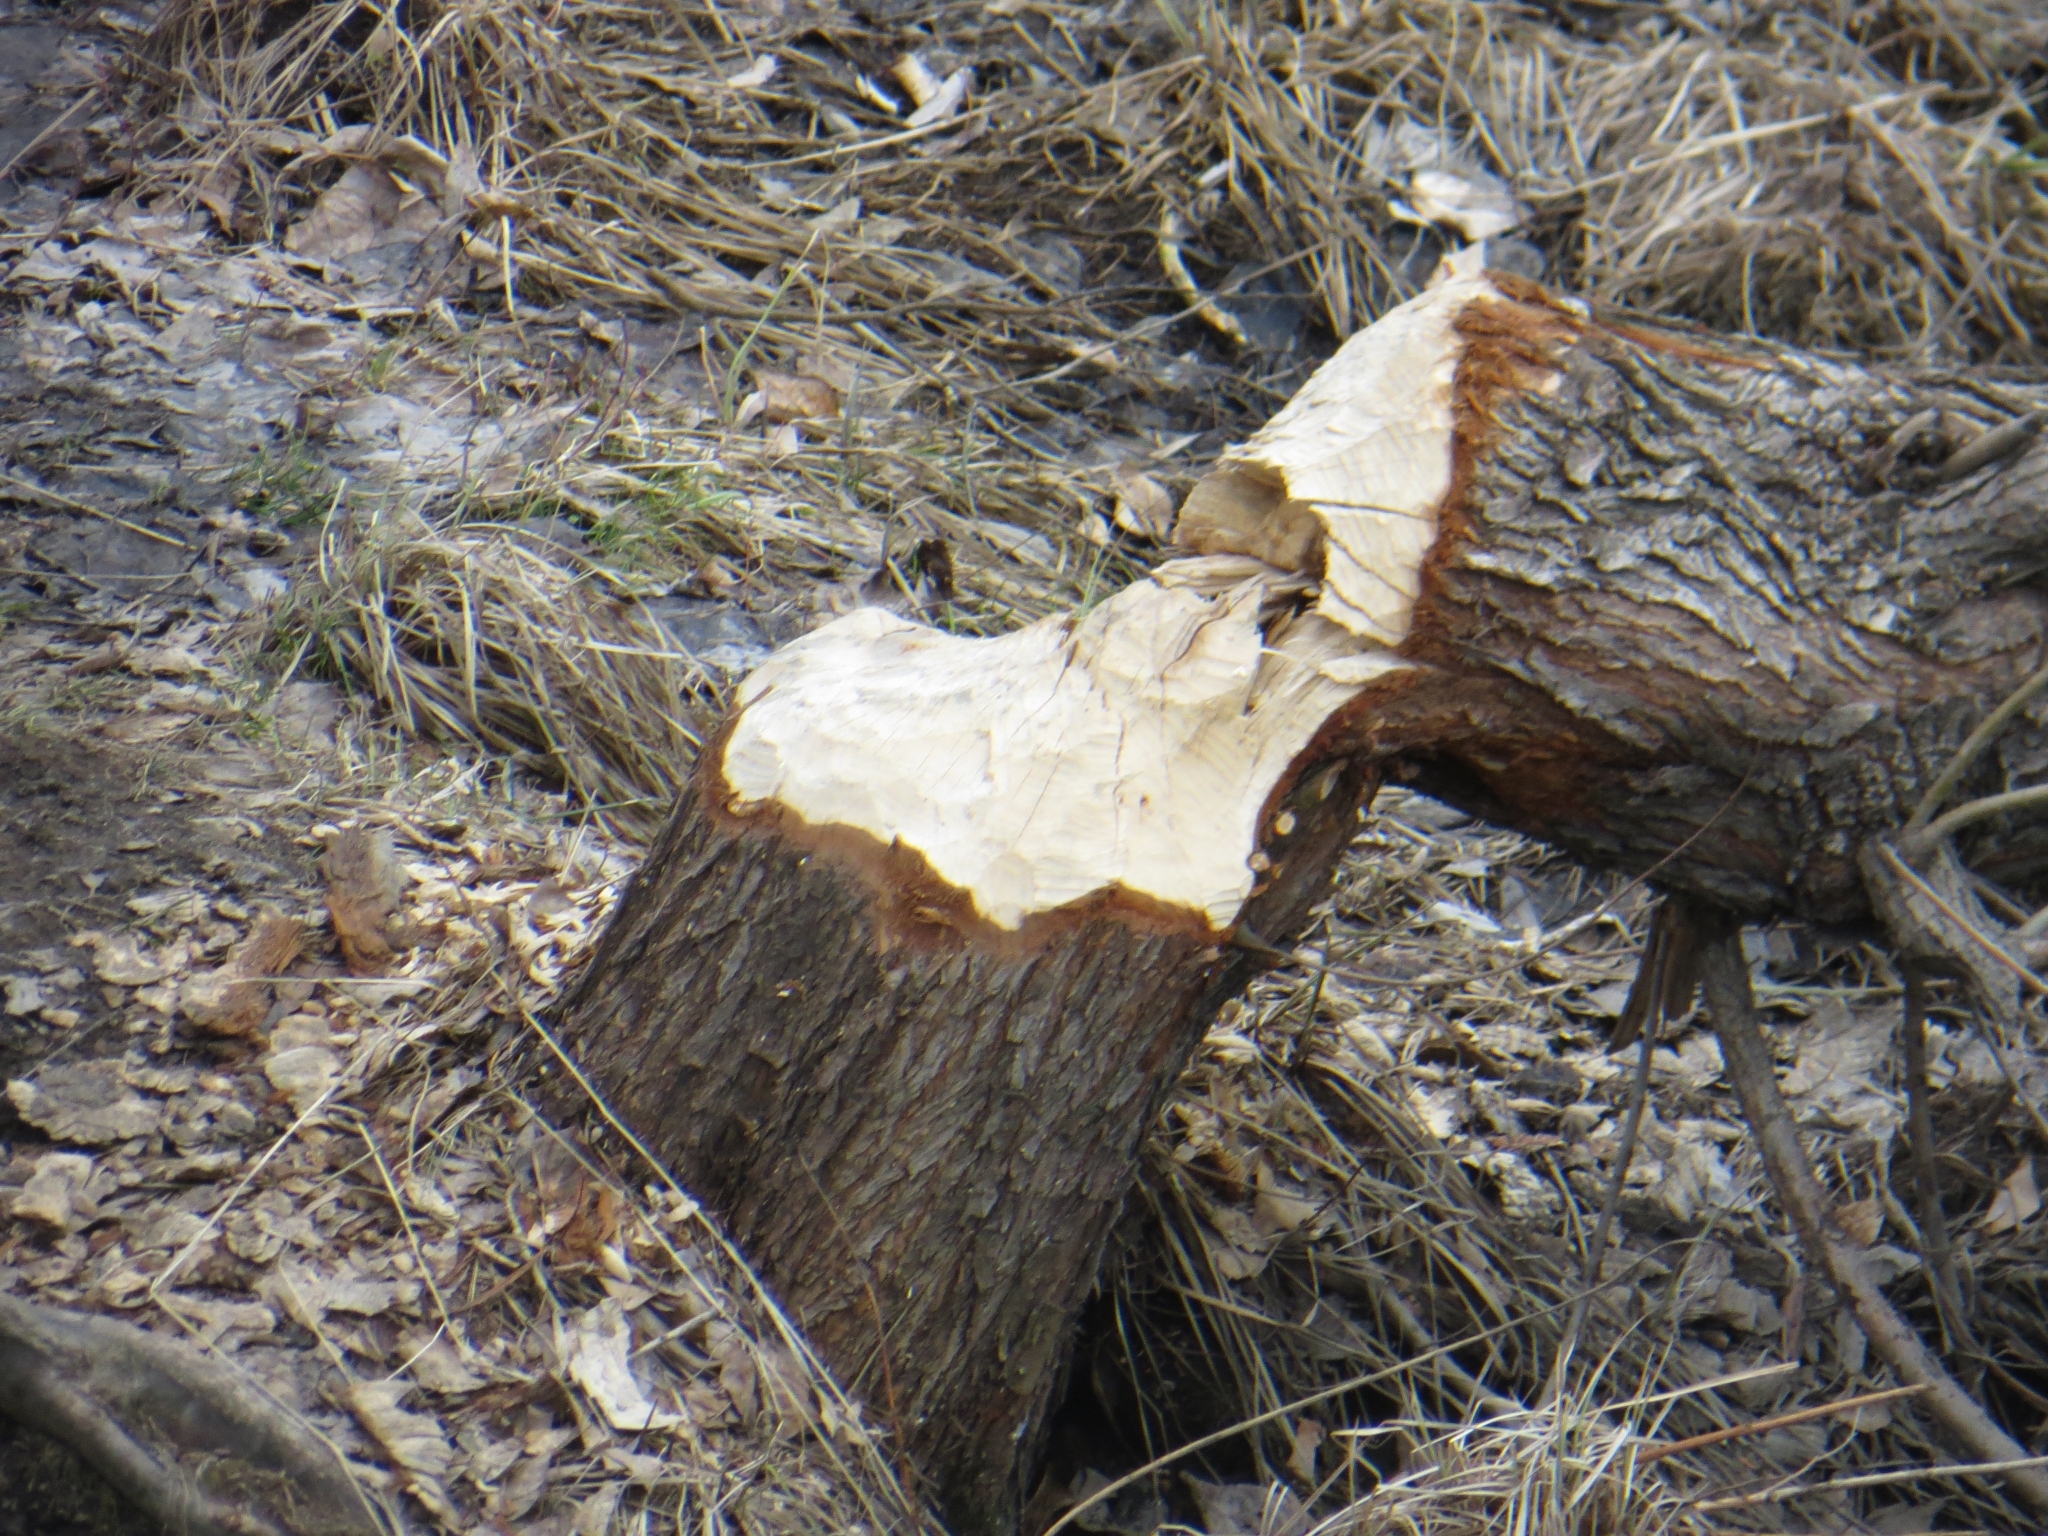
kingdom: Animalia
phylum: Chordata
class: Mammalia
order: Rodentia
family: Castoridae
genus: Castor
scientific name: Castor fiber
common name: Eurasian beaver
